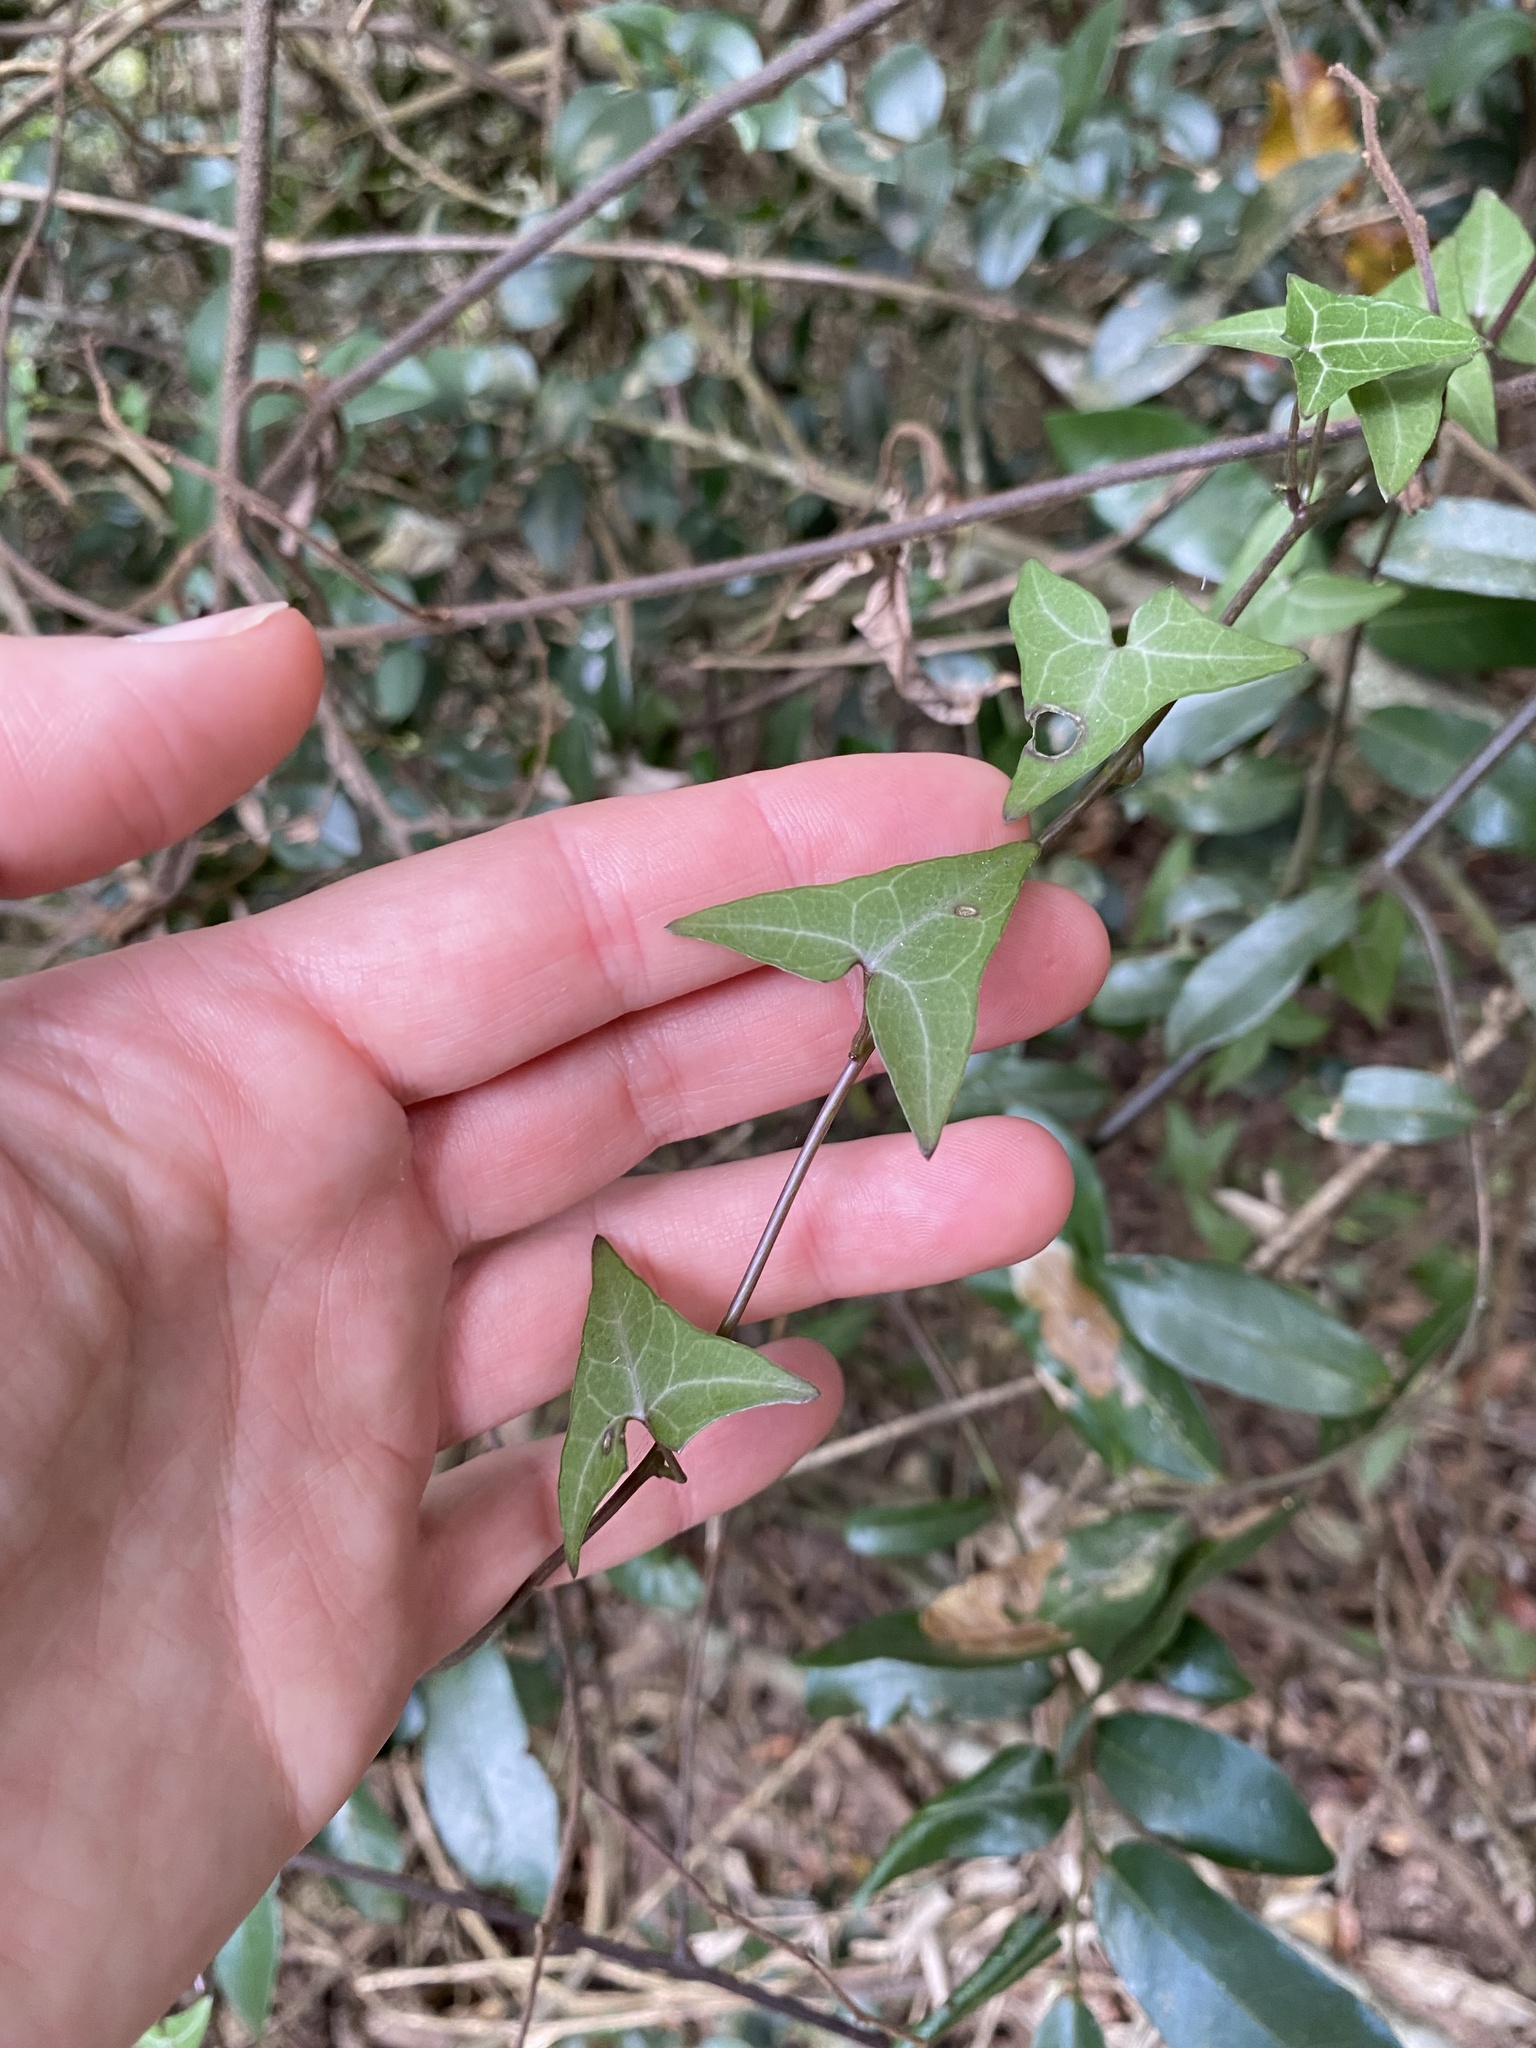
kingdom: Plantae
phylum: Tracheophyta
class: Magnoliopsida
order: Asterales
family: Asteraceae
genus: Senecio
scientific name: Senecio macroglossus
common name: Natal-ivy
